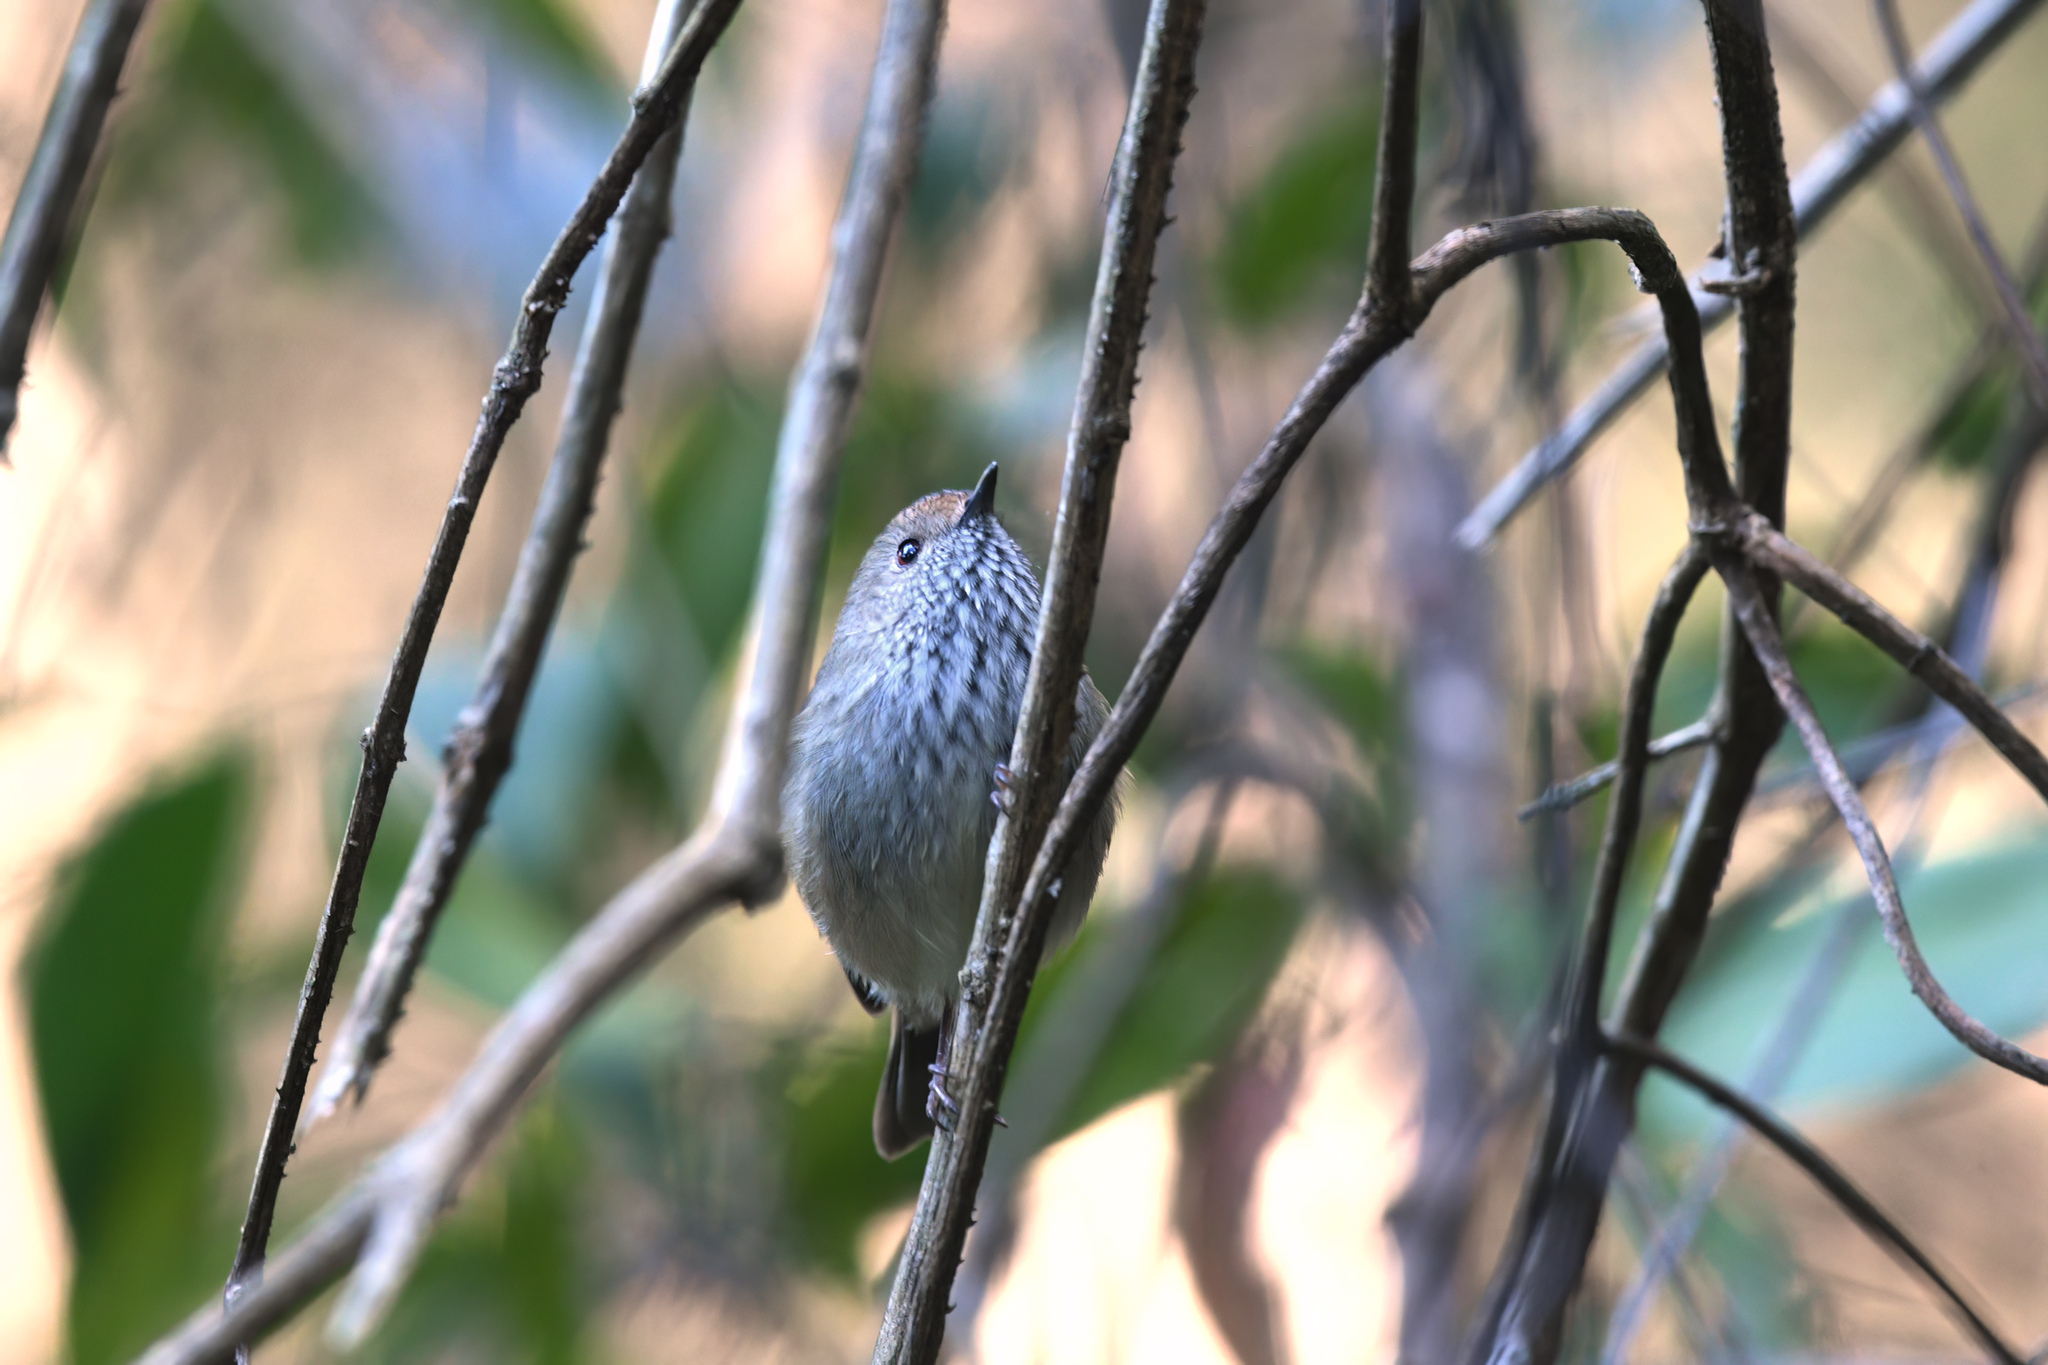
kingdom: Animalia
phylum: Chordata
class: Aves
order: Passeriformes
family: Acanthizidae
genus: Acanthiza
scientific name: Acanthiza pusilla
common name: Brown thornbill
